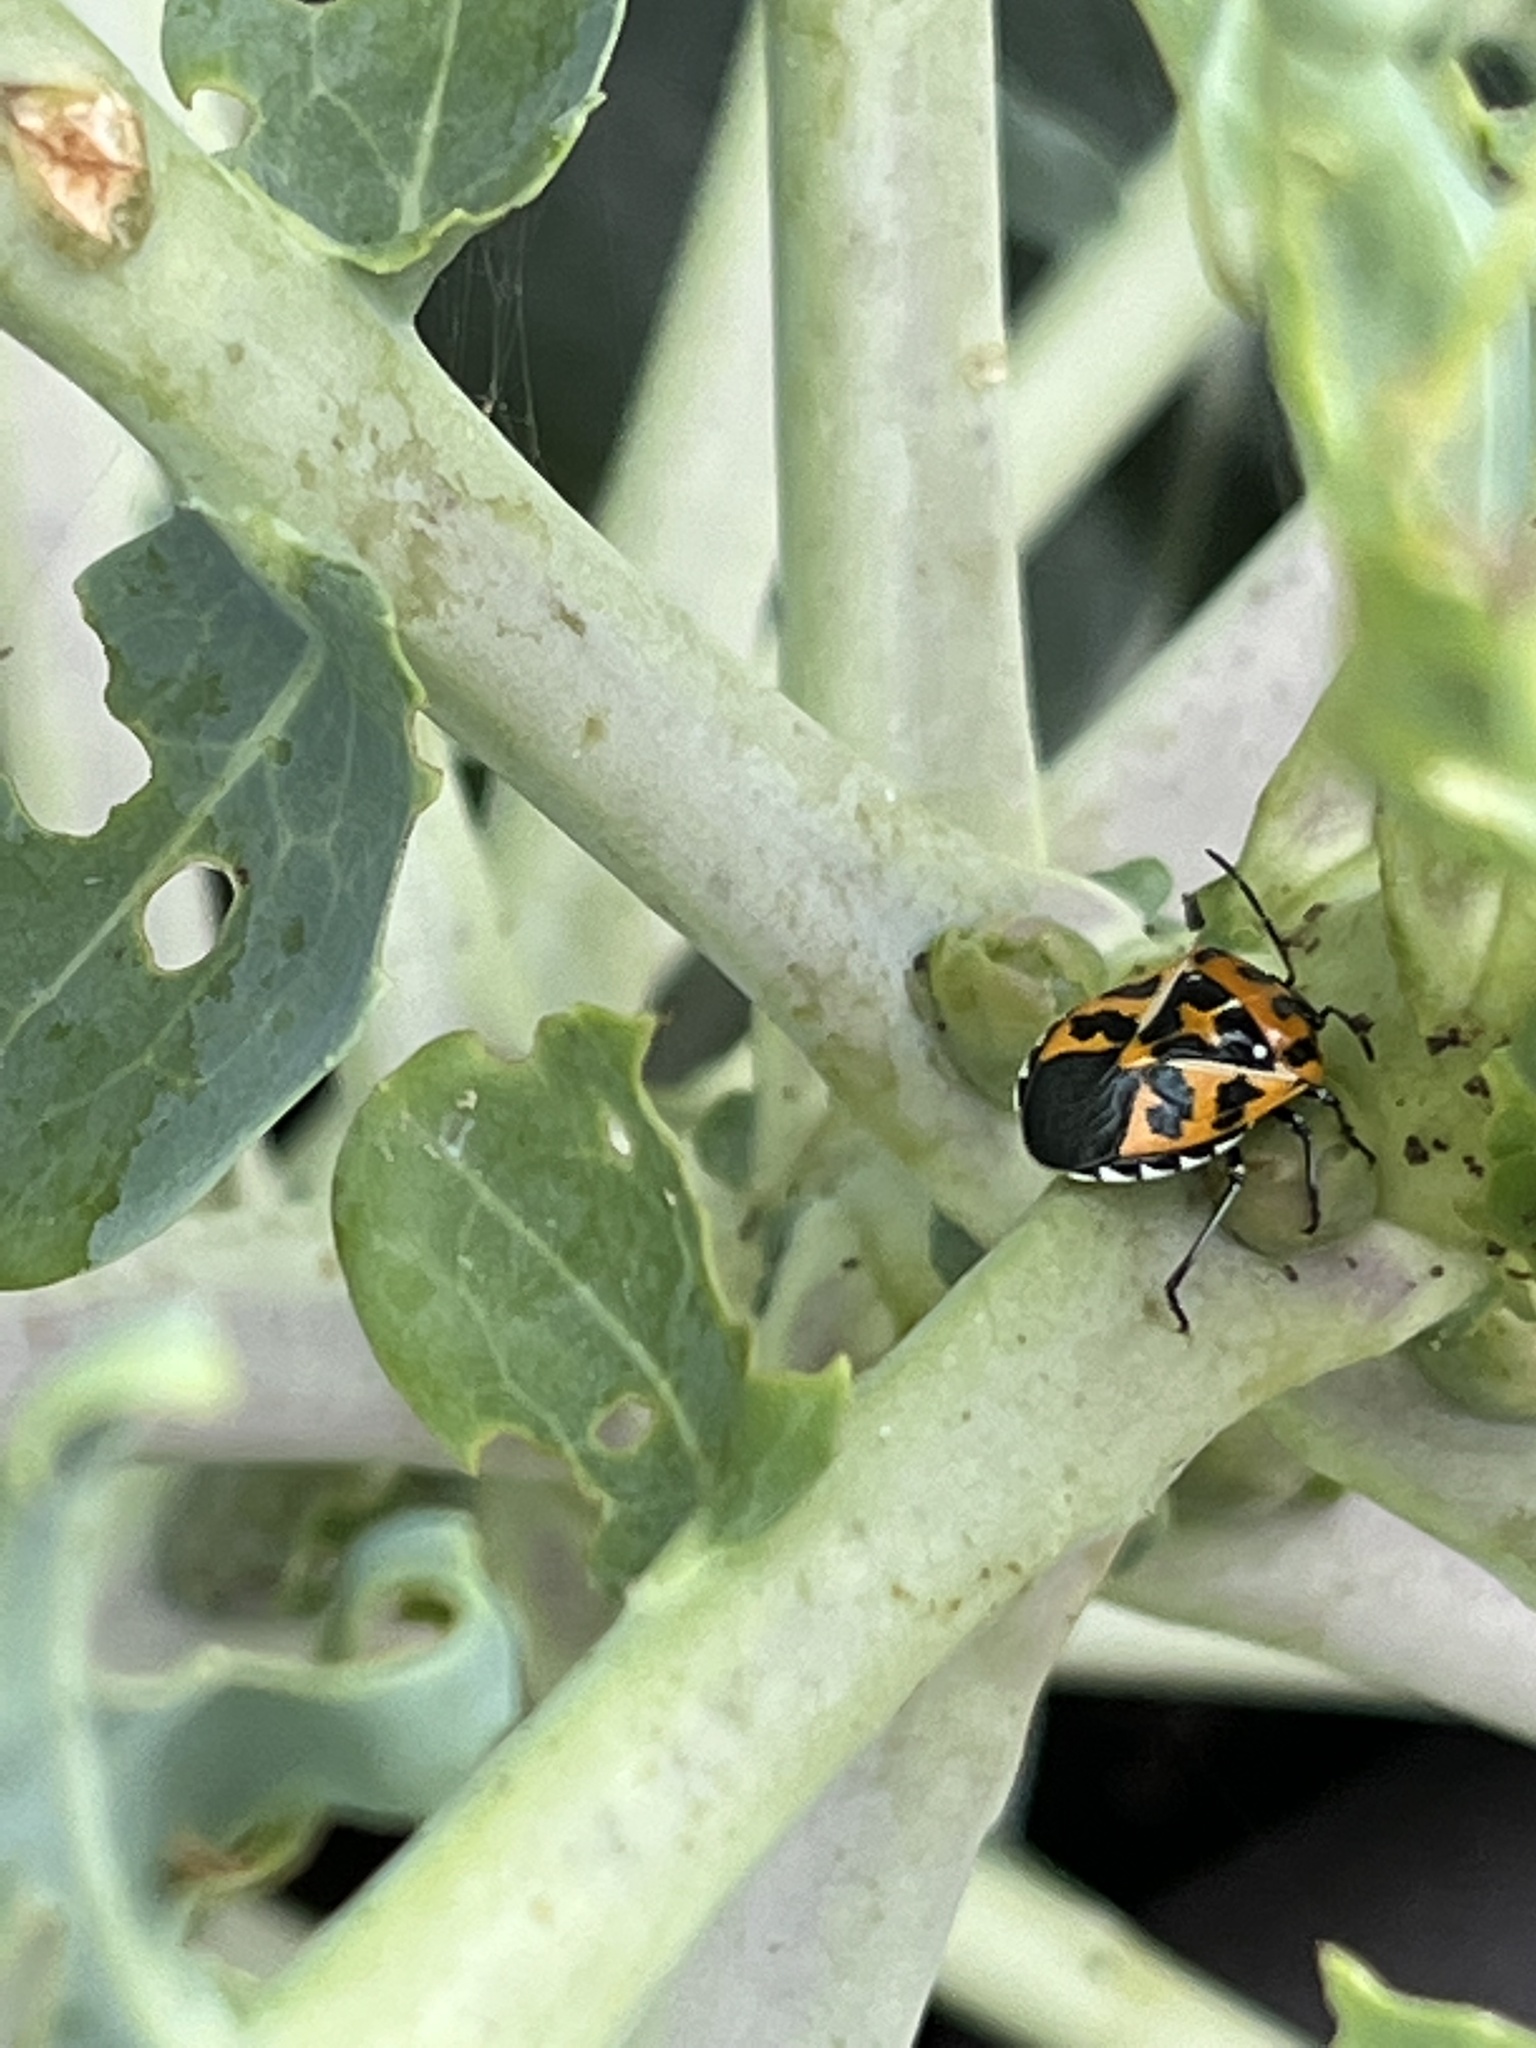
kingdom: Animalia
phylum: Arthropoda
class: Insecta
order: Hemiptera
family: Pentatomidae
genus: Murgantia
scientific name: Murgantia histrionica
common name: Harlequin bug
